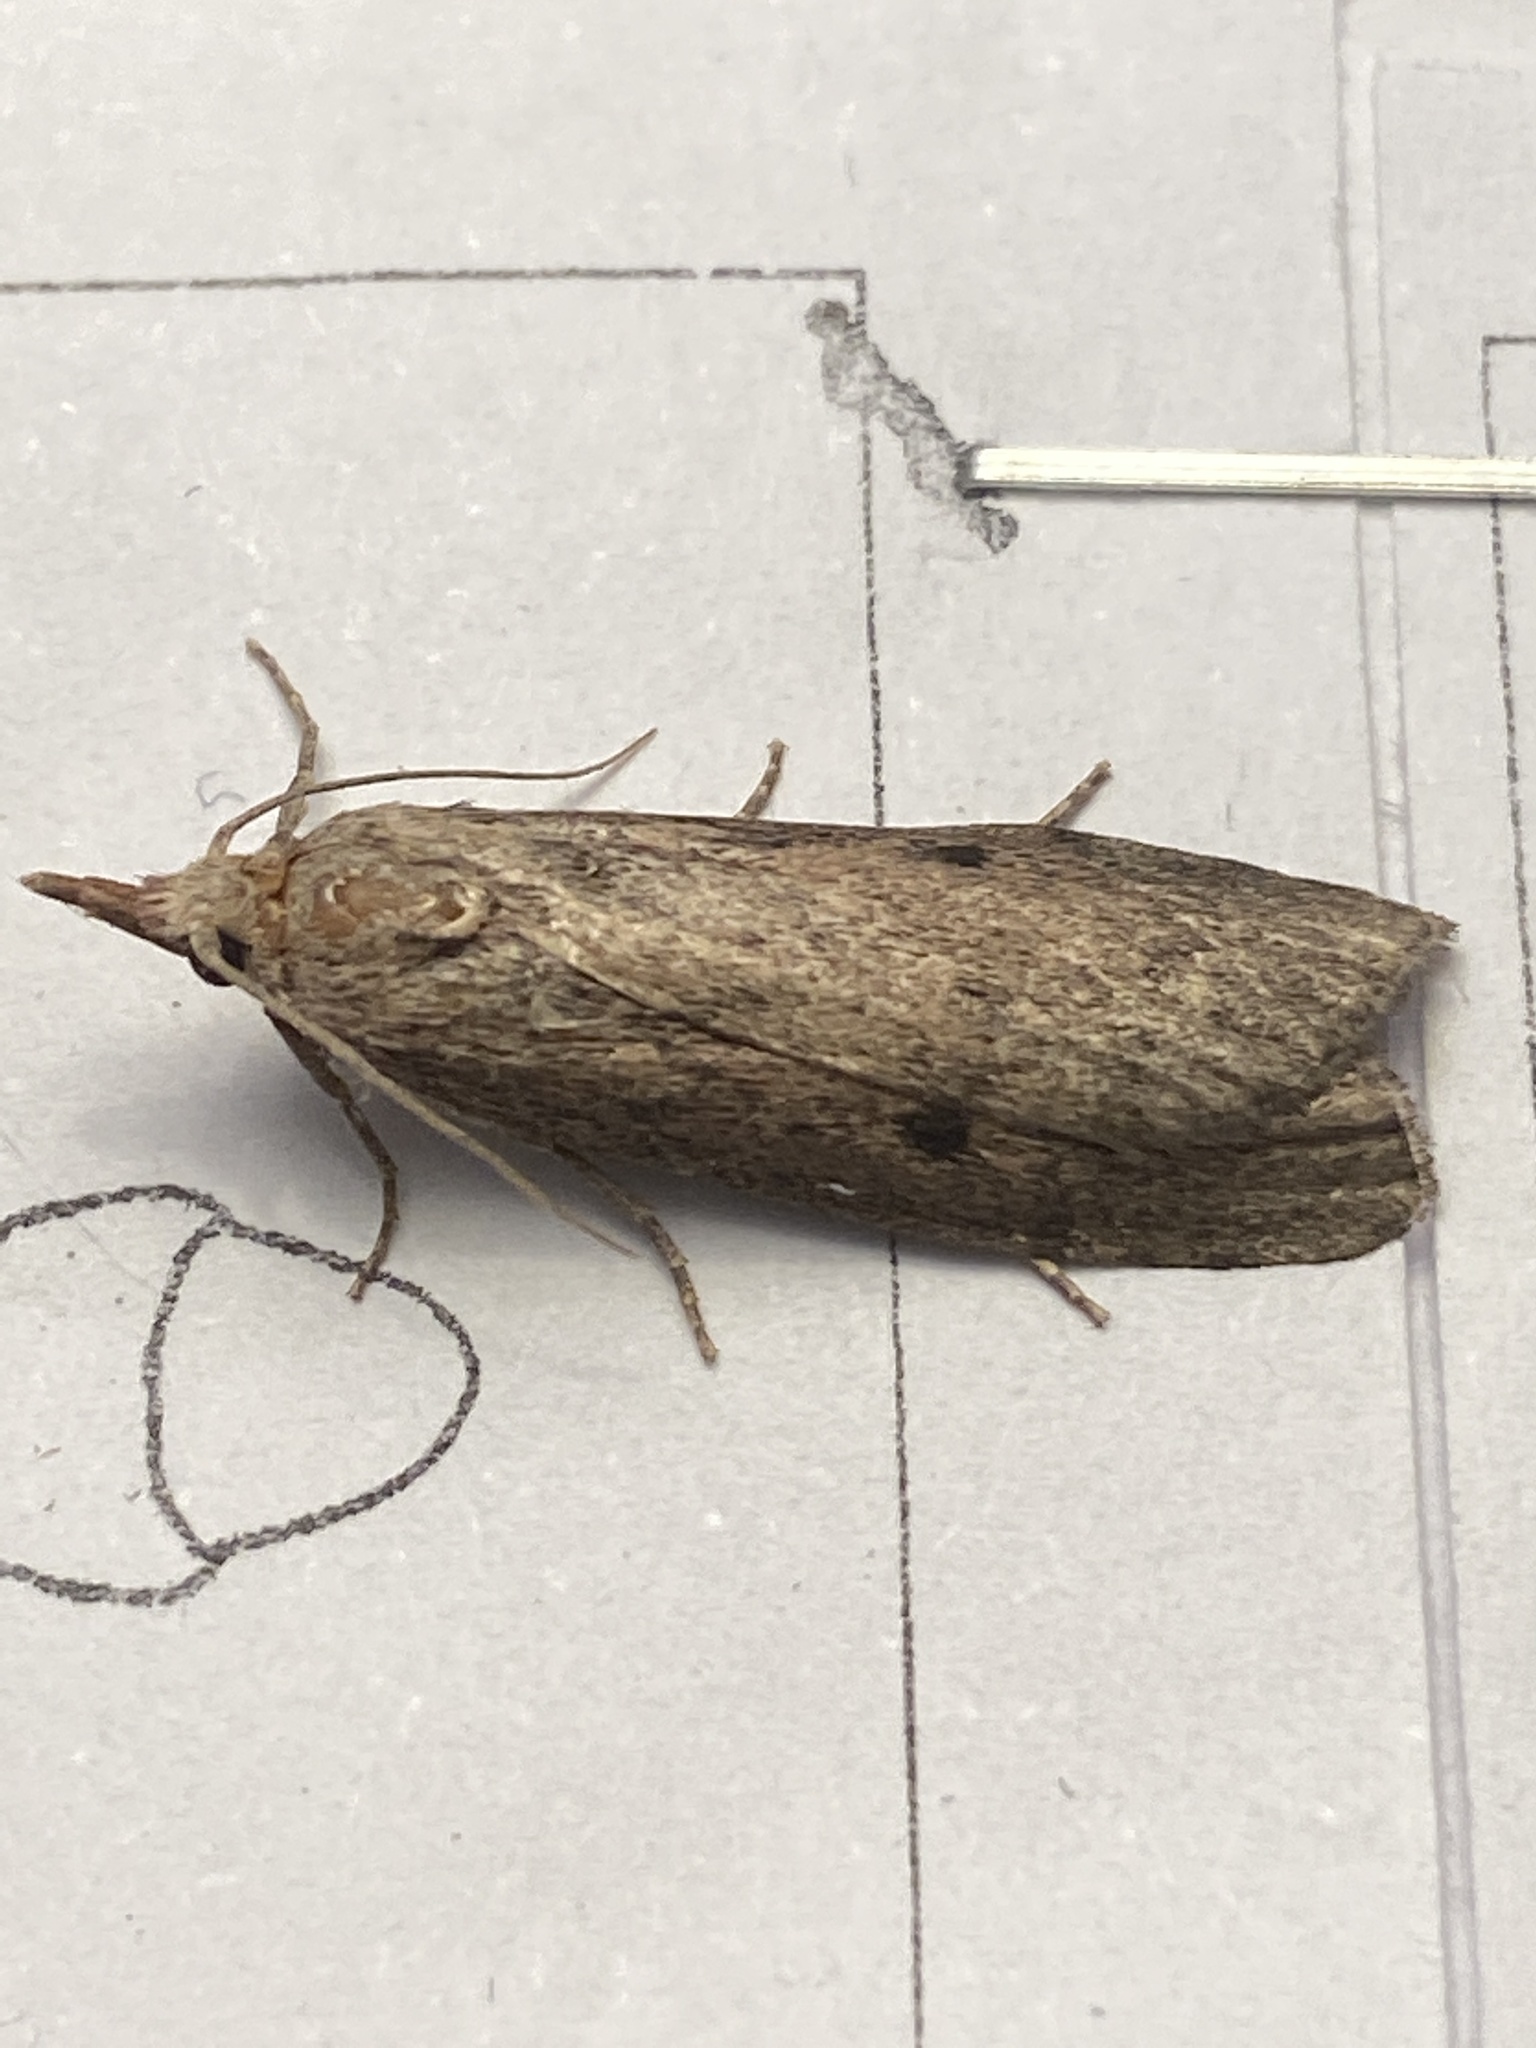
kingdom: Animalia
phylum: Arthropoda
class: Insecta
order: Lepidoptera
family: Pyralidae
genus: Aphomia
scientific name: Aphomia sociella
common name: Bee moth
